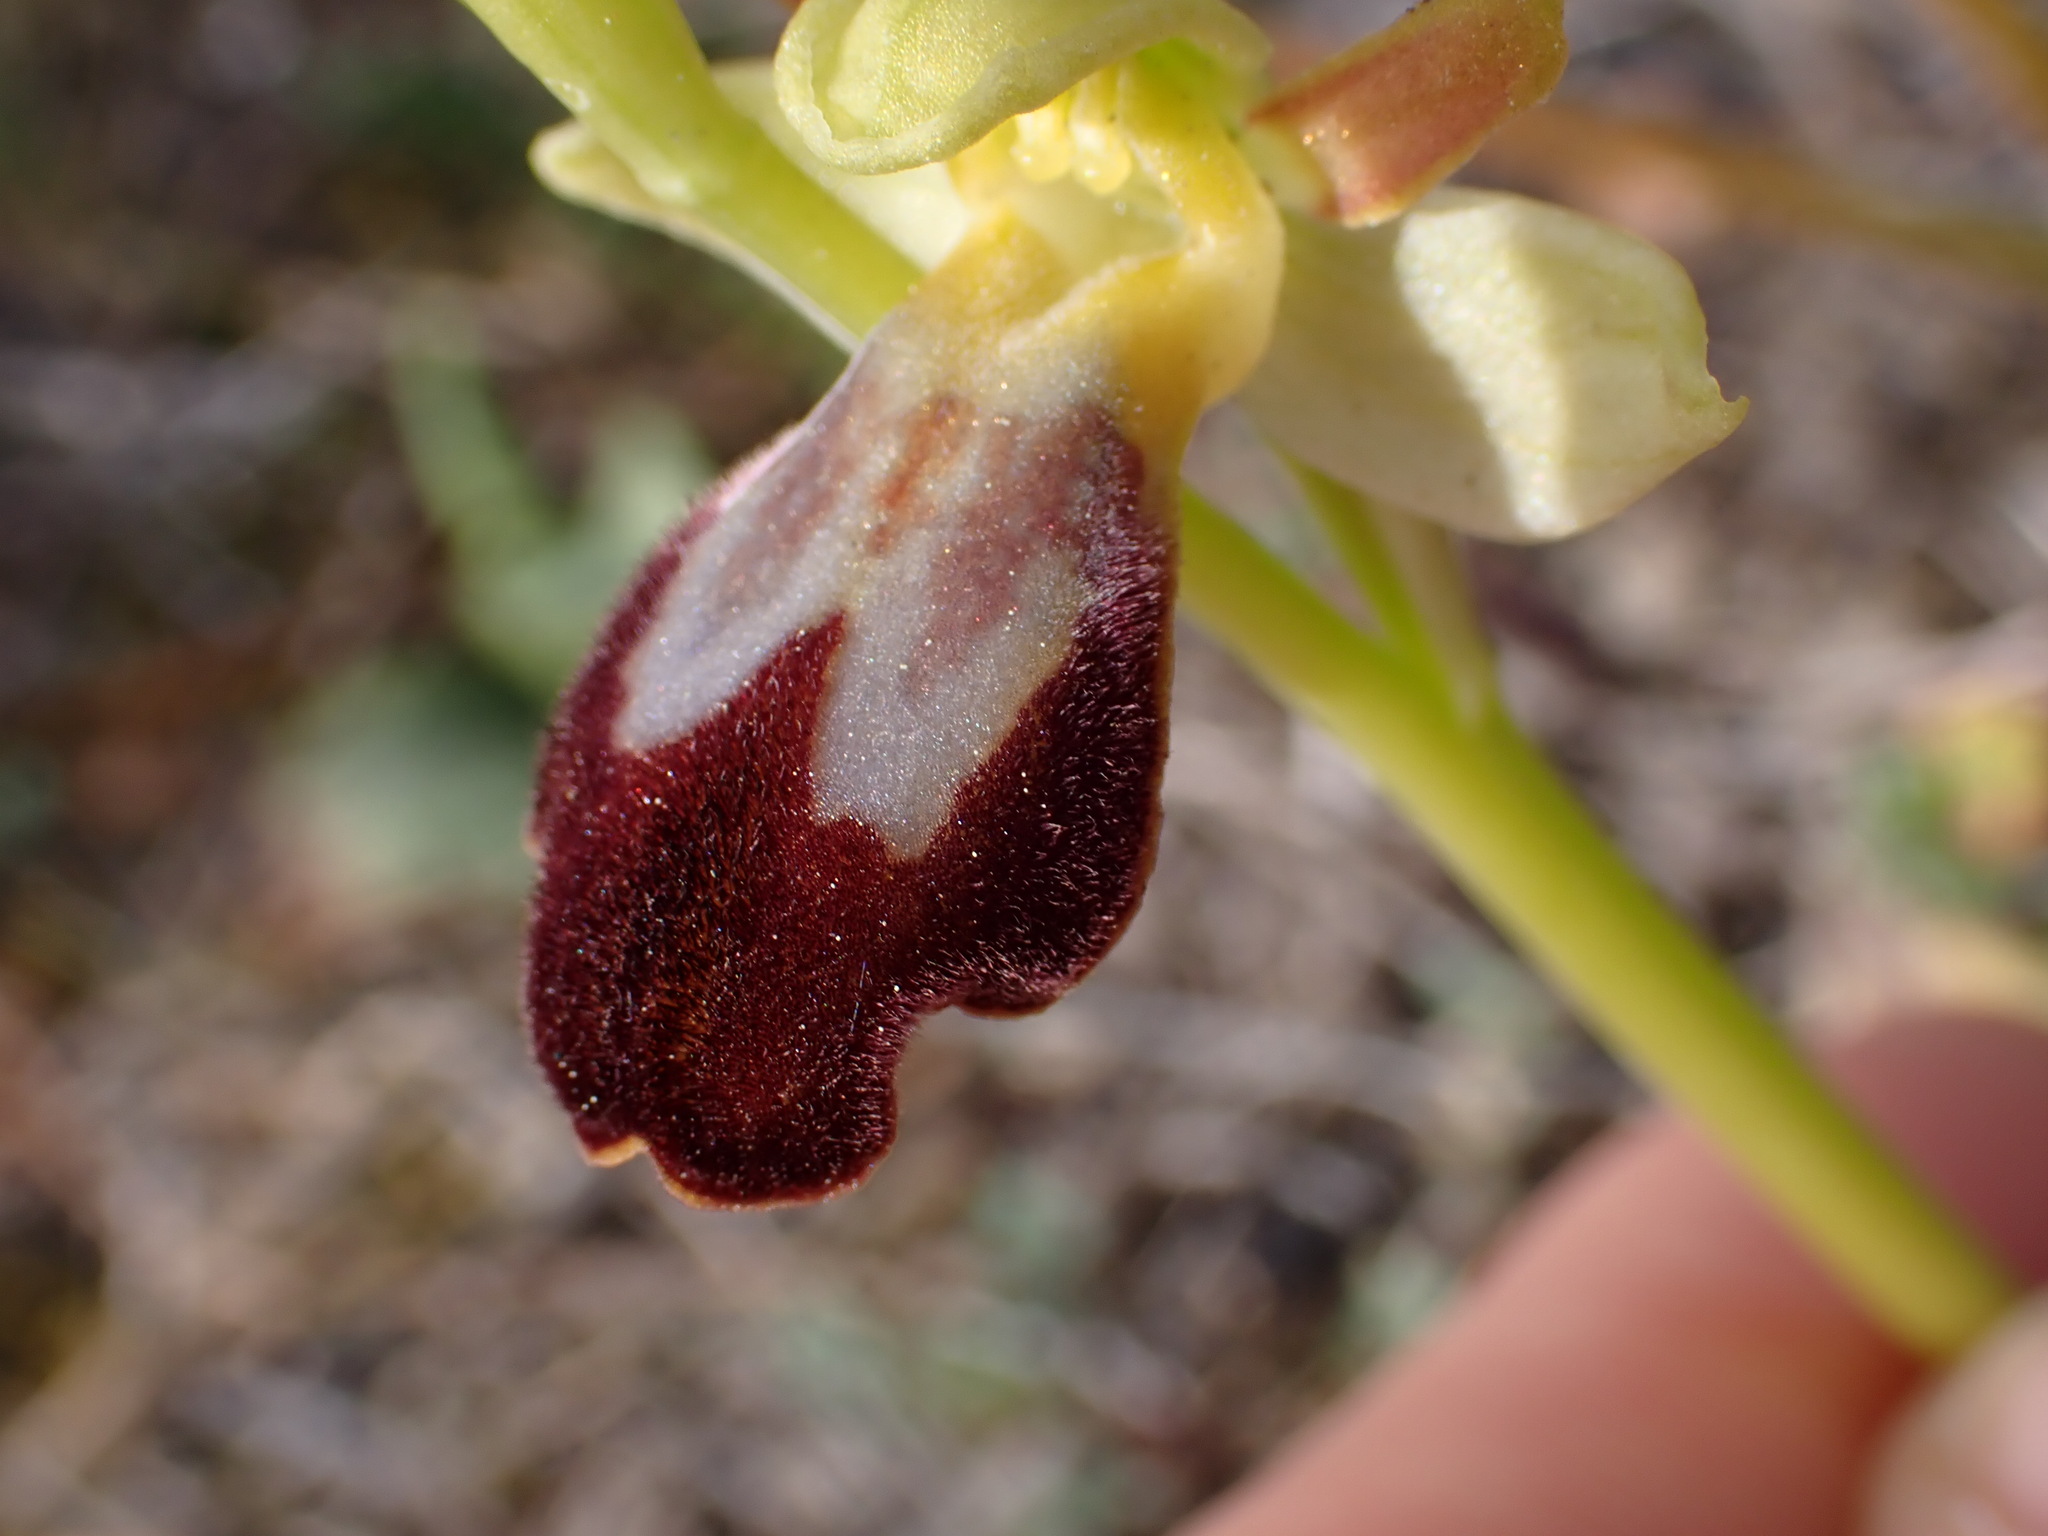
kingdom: Plantae
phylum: Tracheophyta
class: Liliopsida
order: Asparagales
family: Orchidaceae
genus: Ophrys
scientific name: Ophrys fusca
